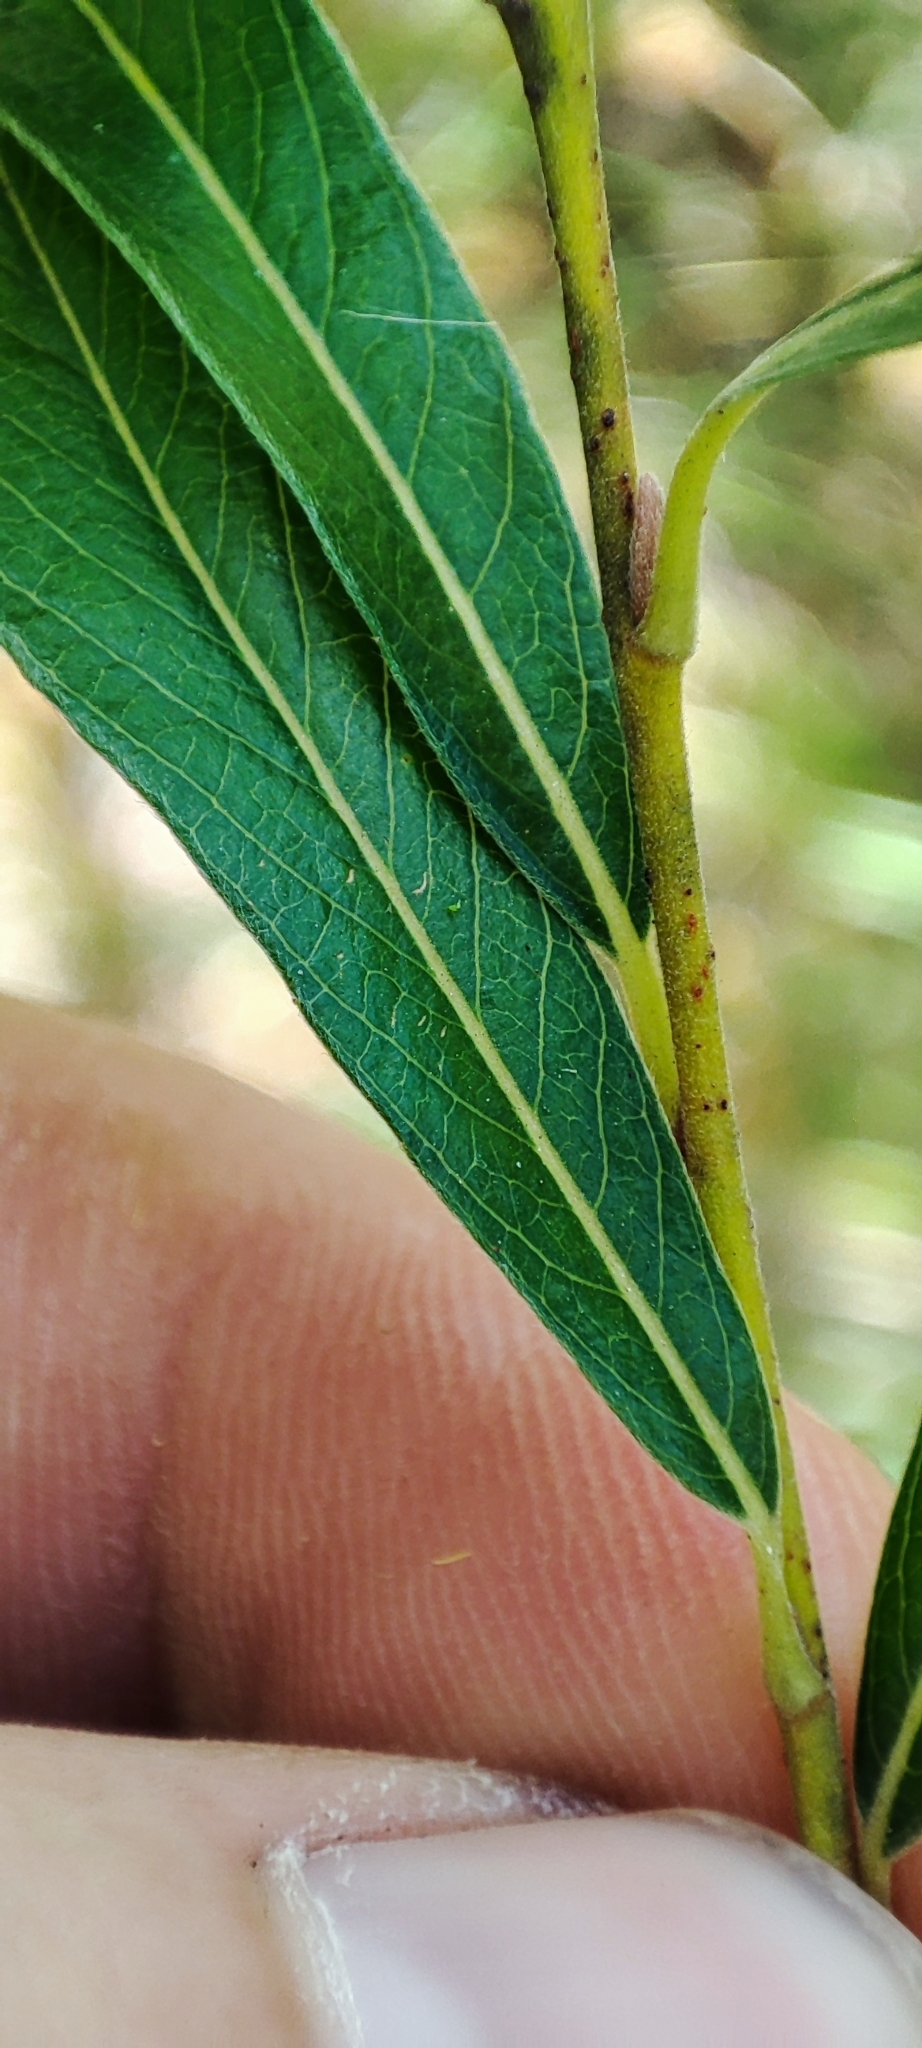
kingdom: Plantae
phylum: Tracheophyta
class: Magnoliopsida
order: Malpighiales
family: Salicaceae
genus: Salix
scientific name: Salix rosmarinifolia
